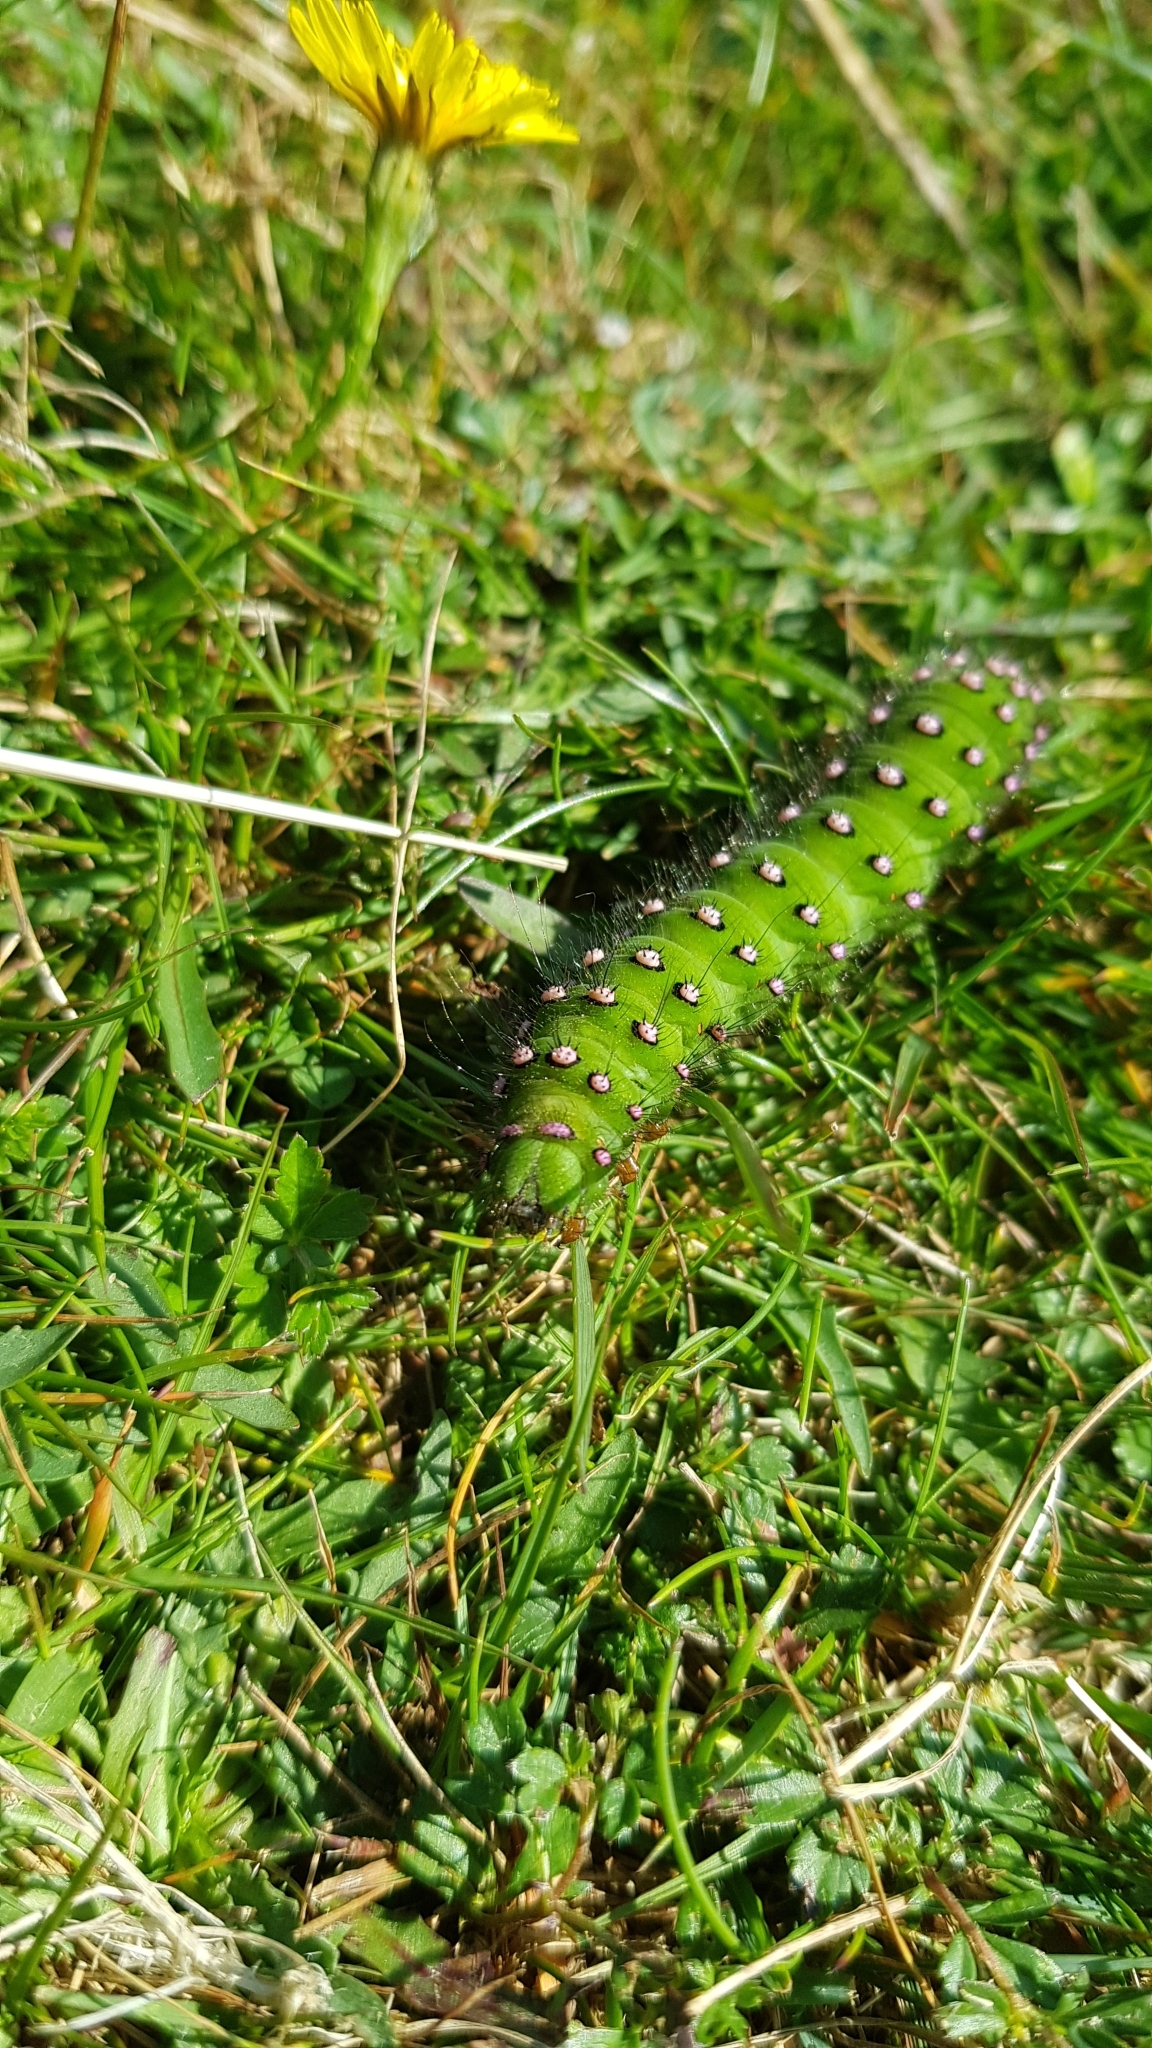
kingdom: Animalia
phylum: Arthropoda
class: Insecta
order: Lepidoptera
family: Saturniidae
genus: Saturnia
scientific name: Saturnia pavonia
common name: Emperor moth
